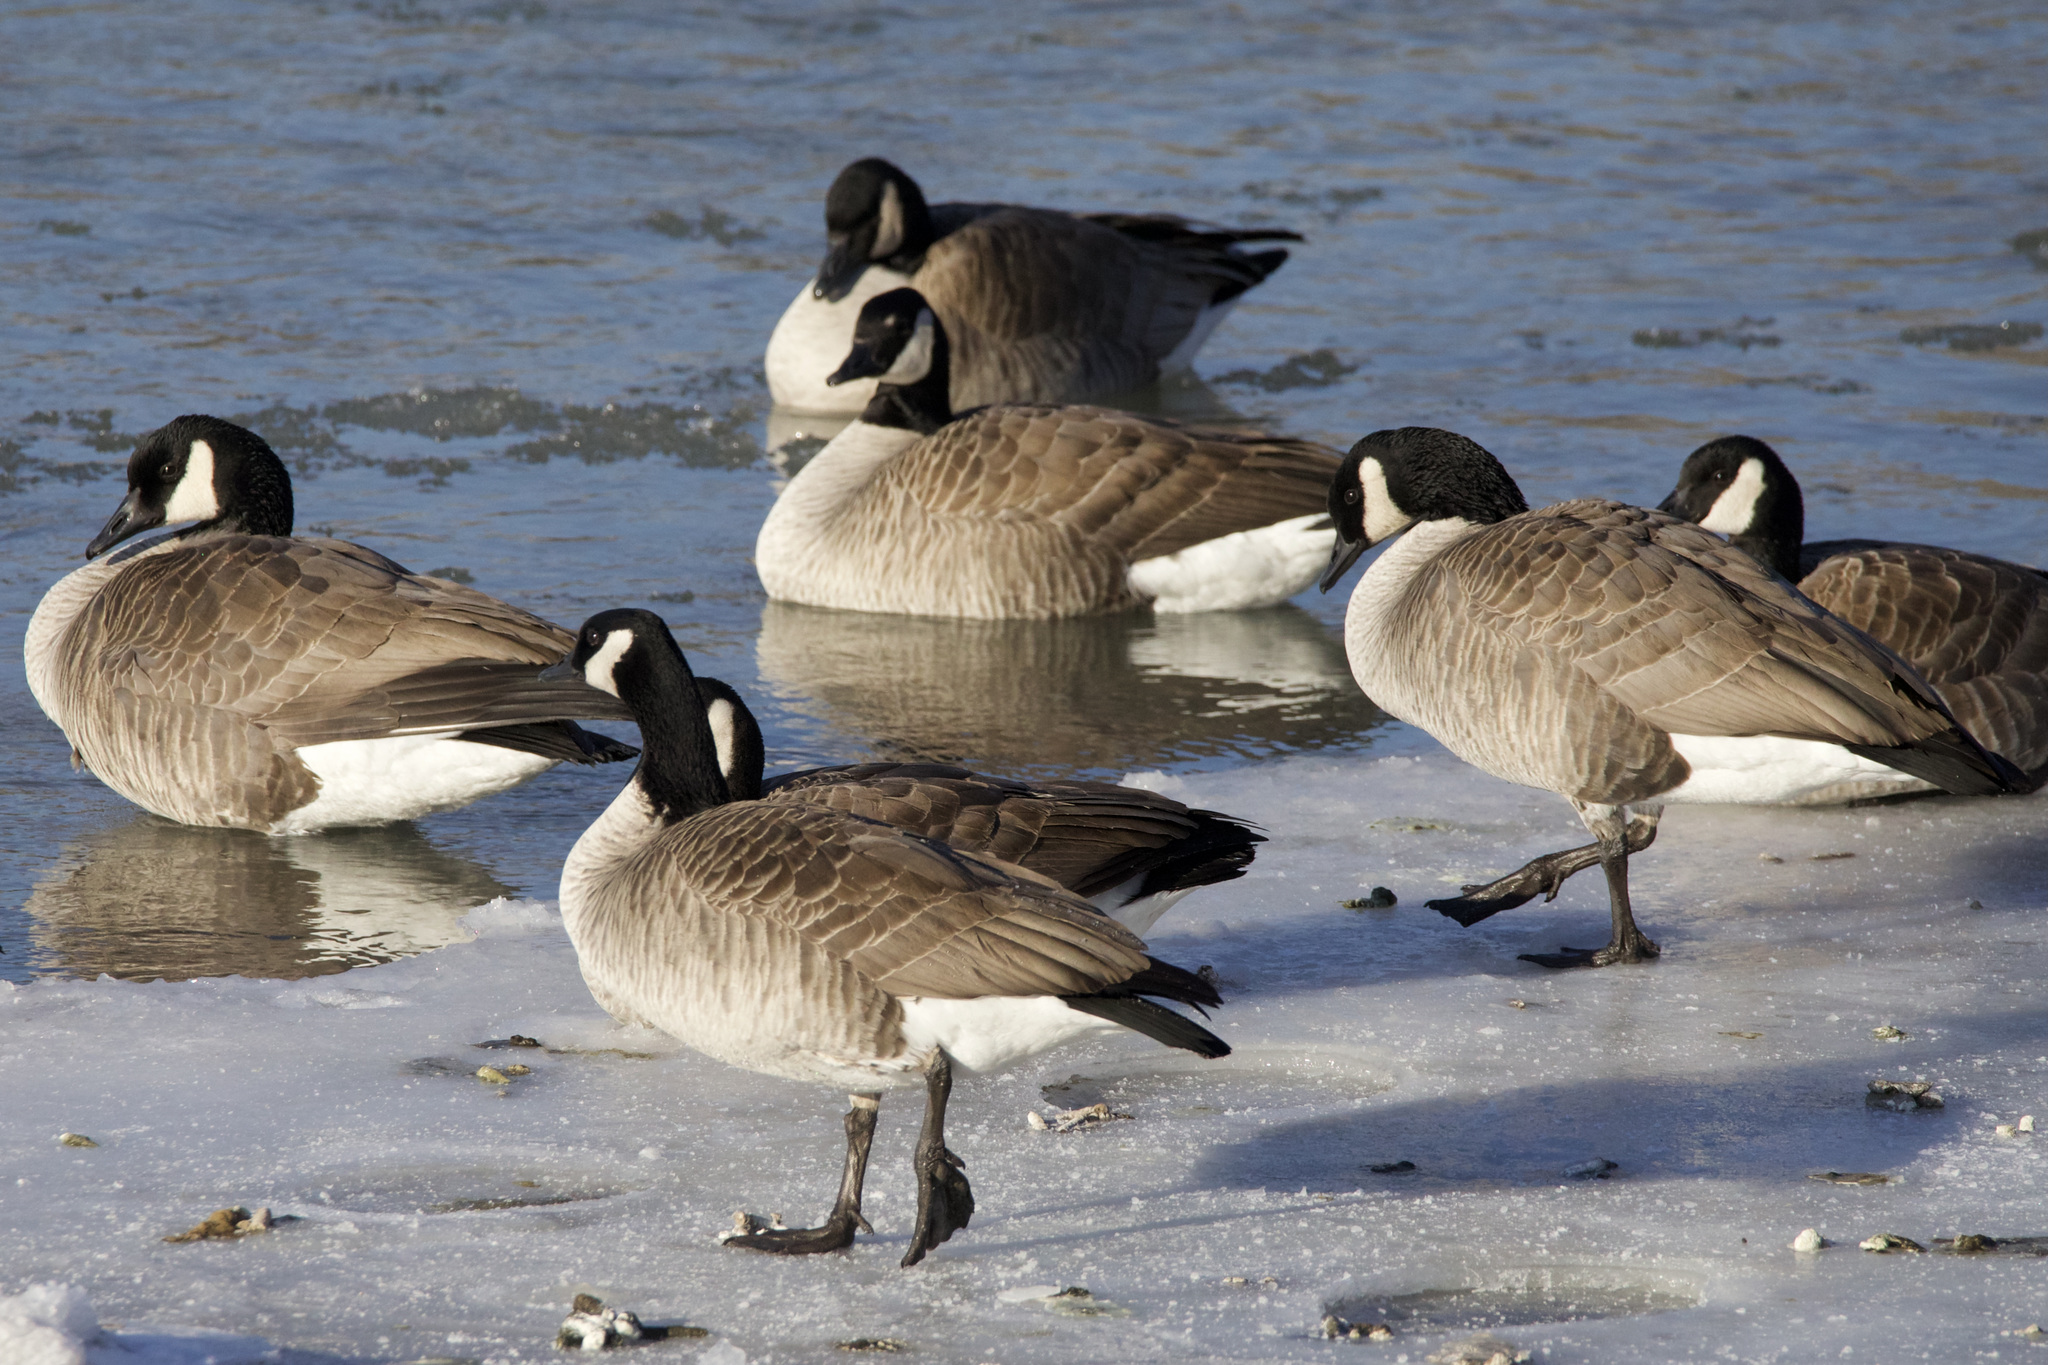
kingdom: Animalia
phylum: Chordata
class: Aves
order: Anseriformes
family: Anatidae
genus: Branta
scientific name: Branta canadensis
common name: Canada goose
